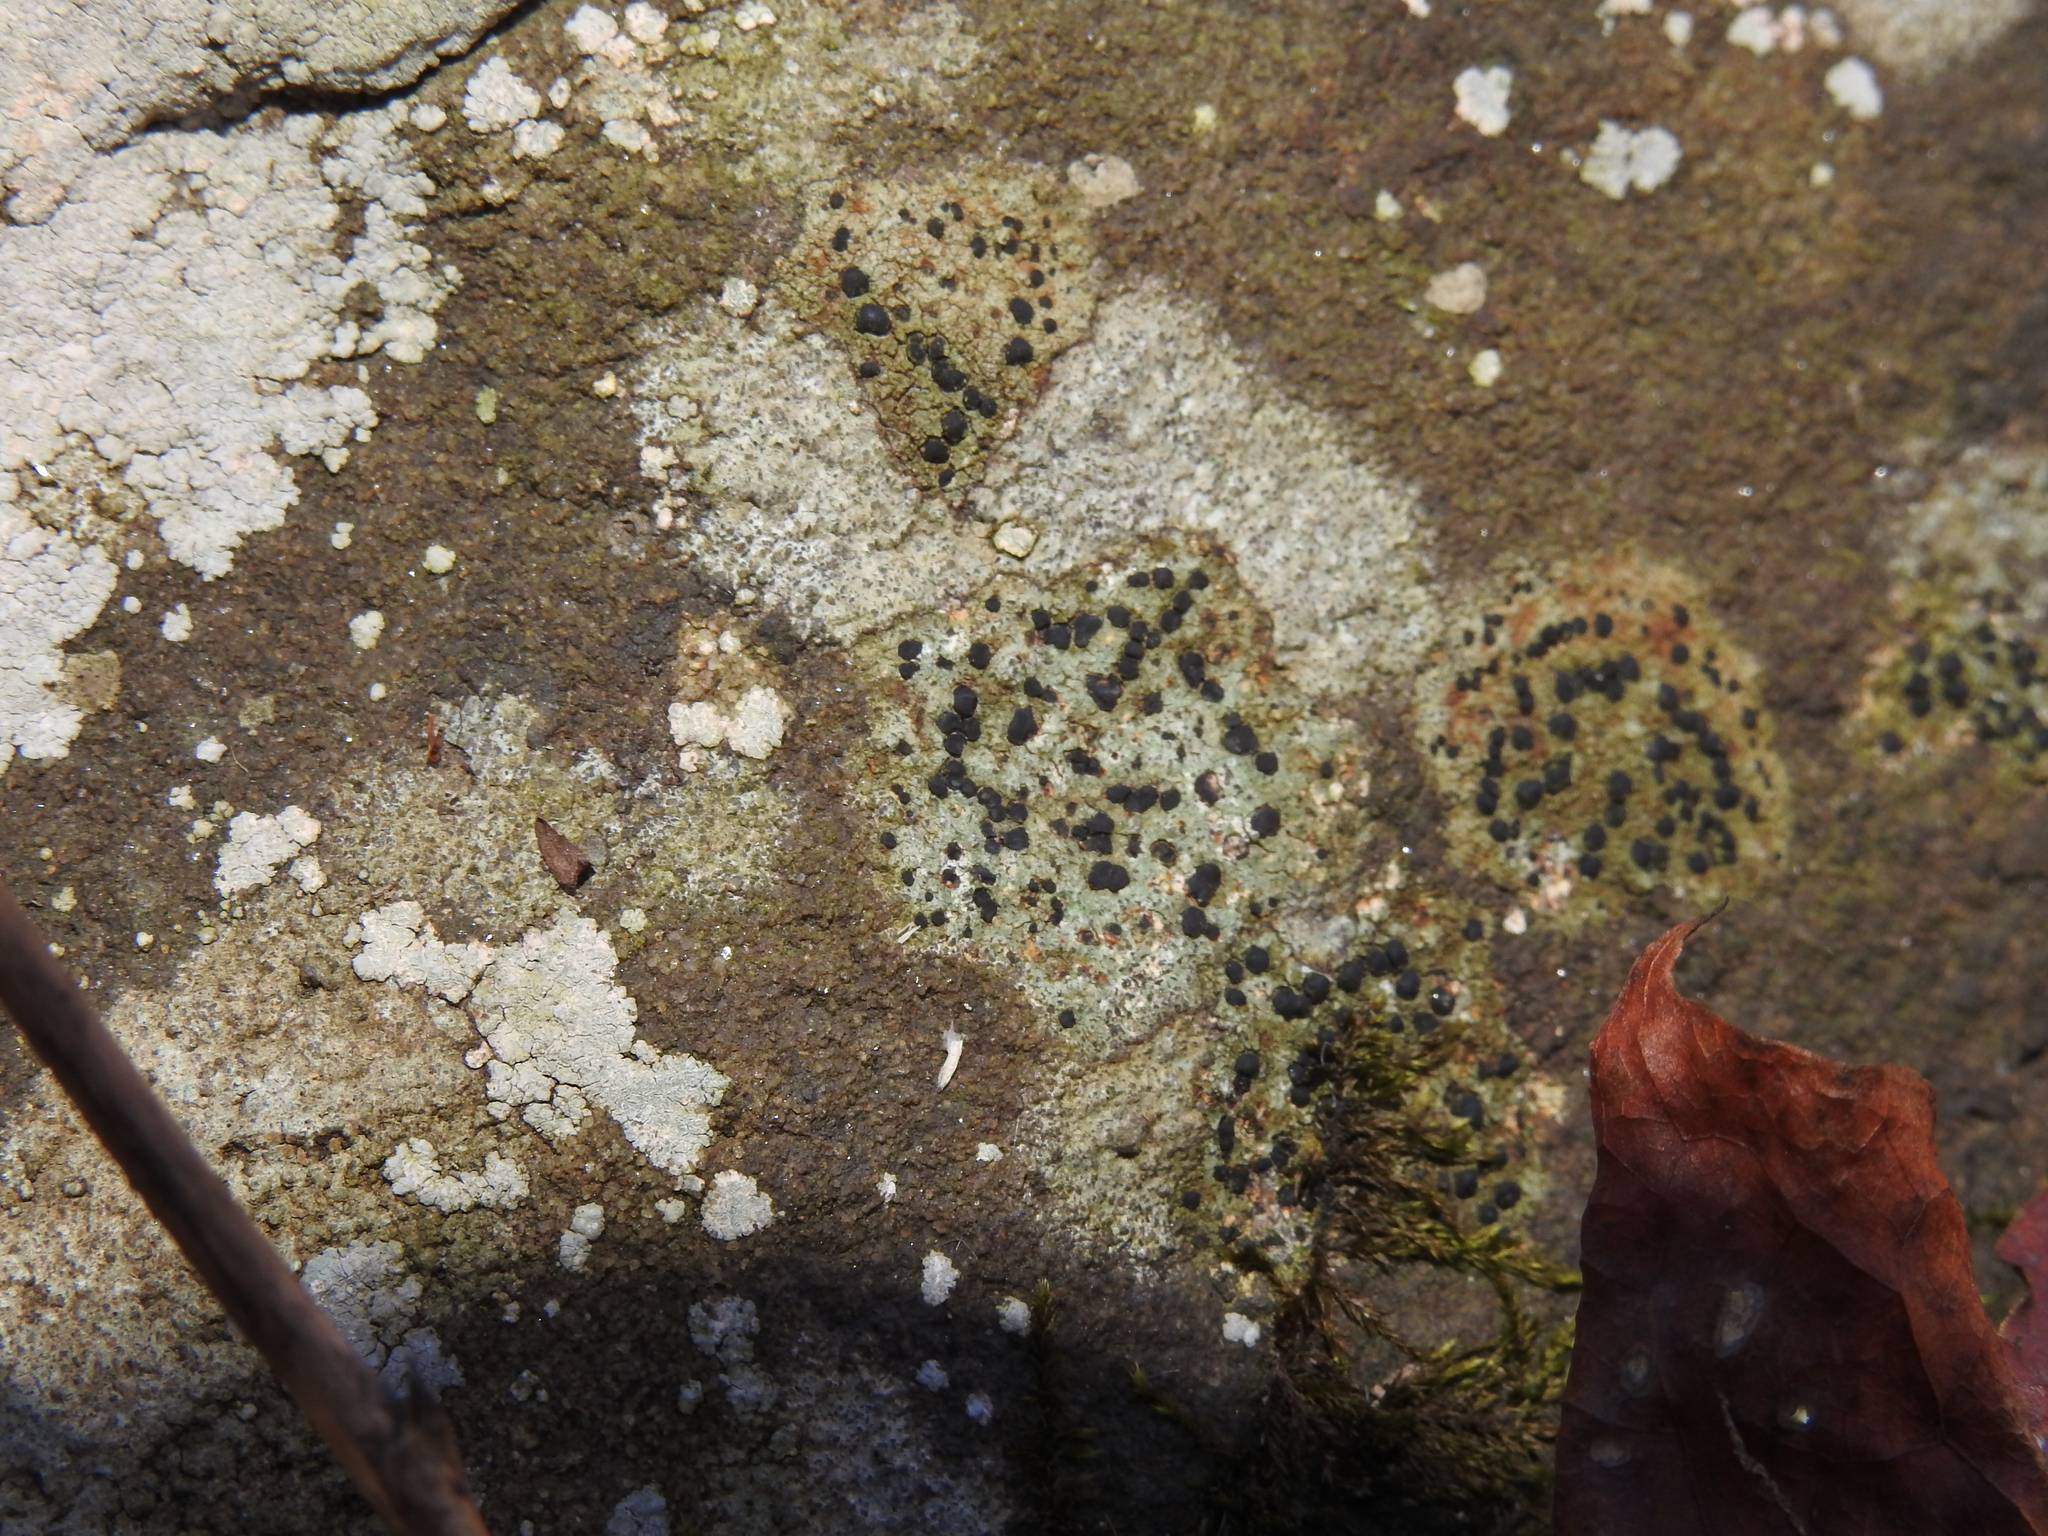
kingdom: Fungi
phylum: Ascomycota
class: Lecanoromycetes
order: Lecideales
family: Lecideaceae
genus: Porpidia
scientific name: Porpidia crustulata
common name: Concentric boulder lichen
